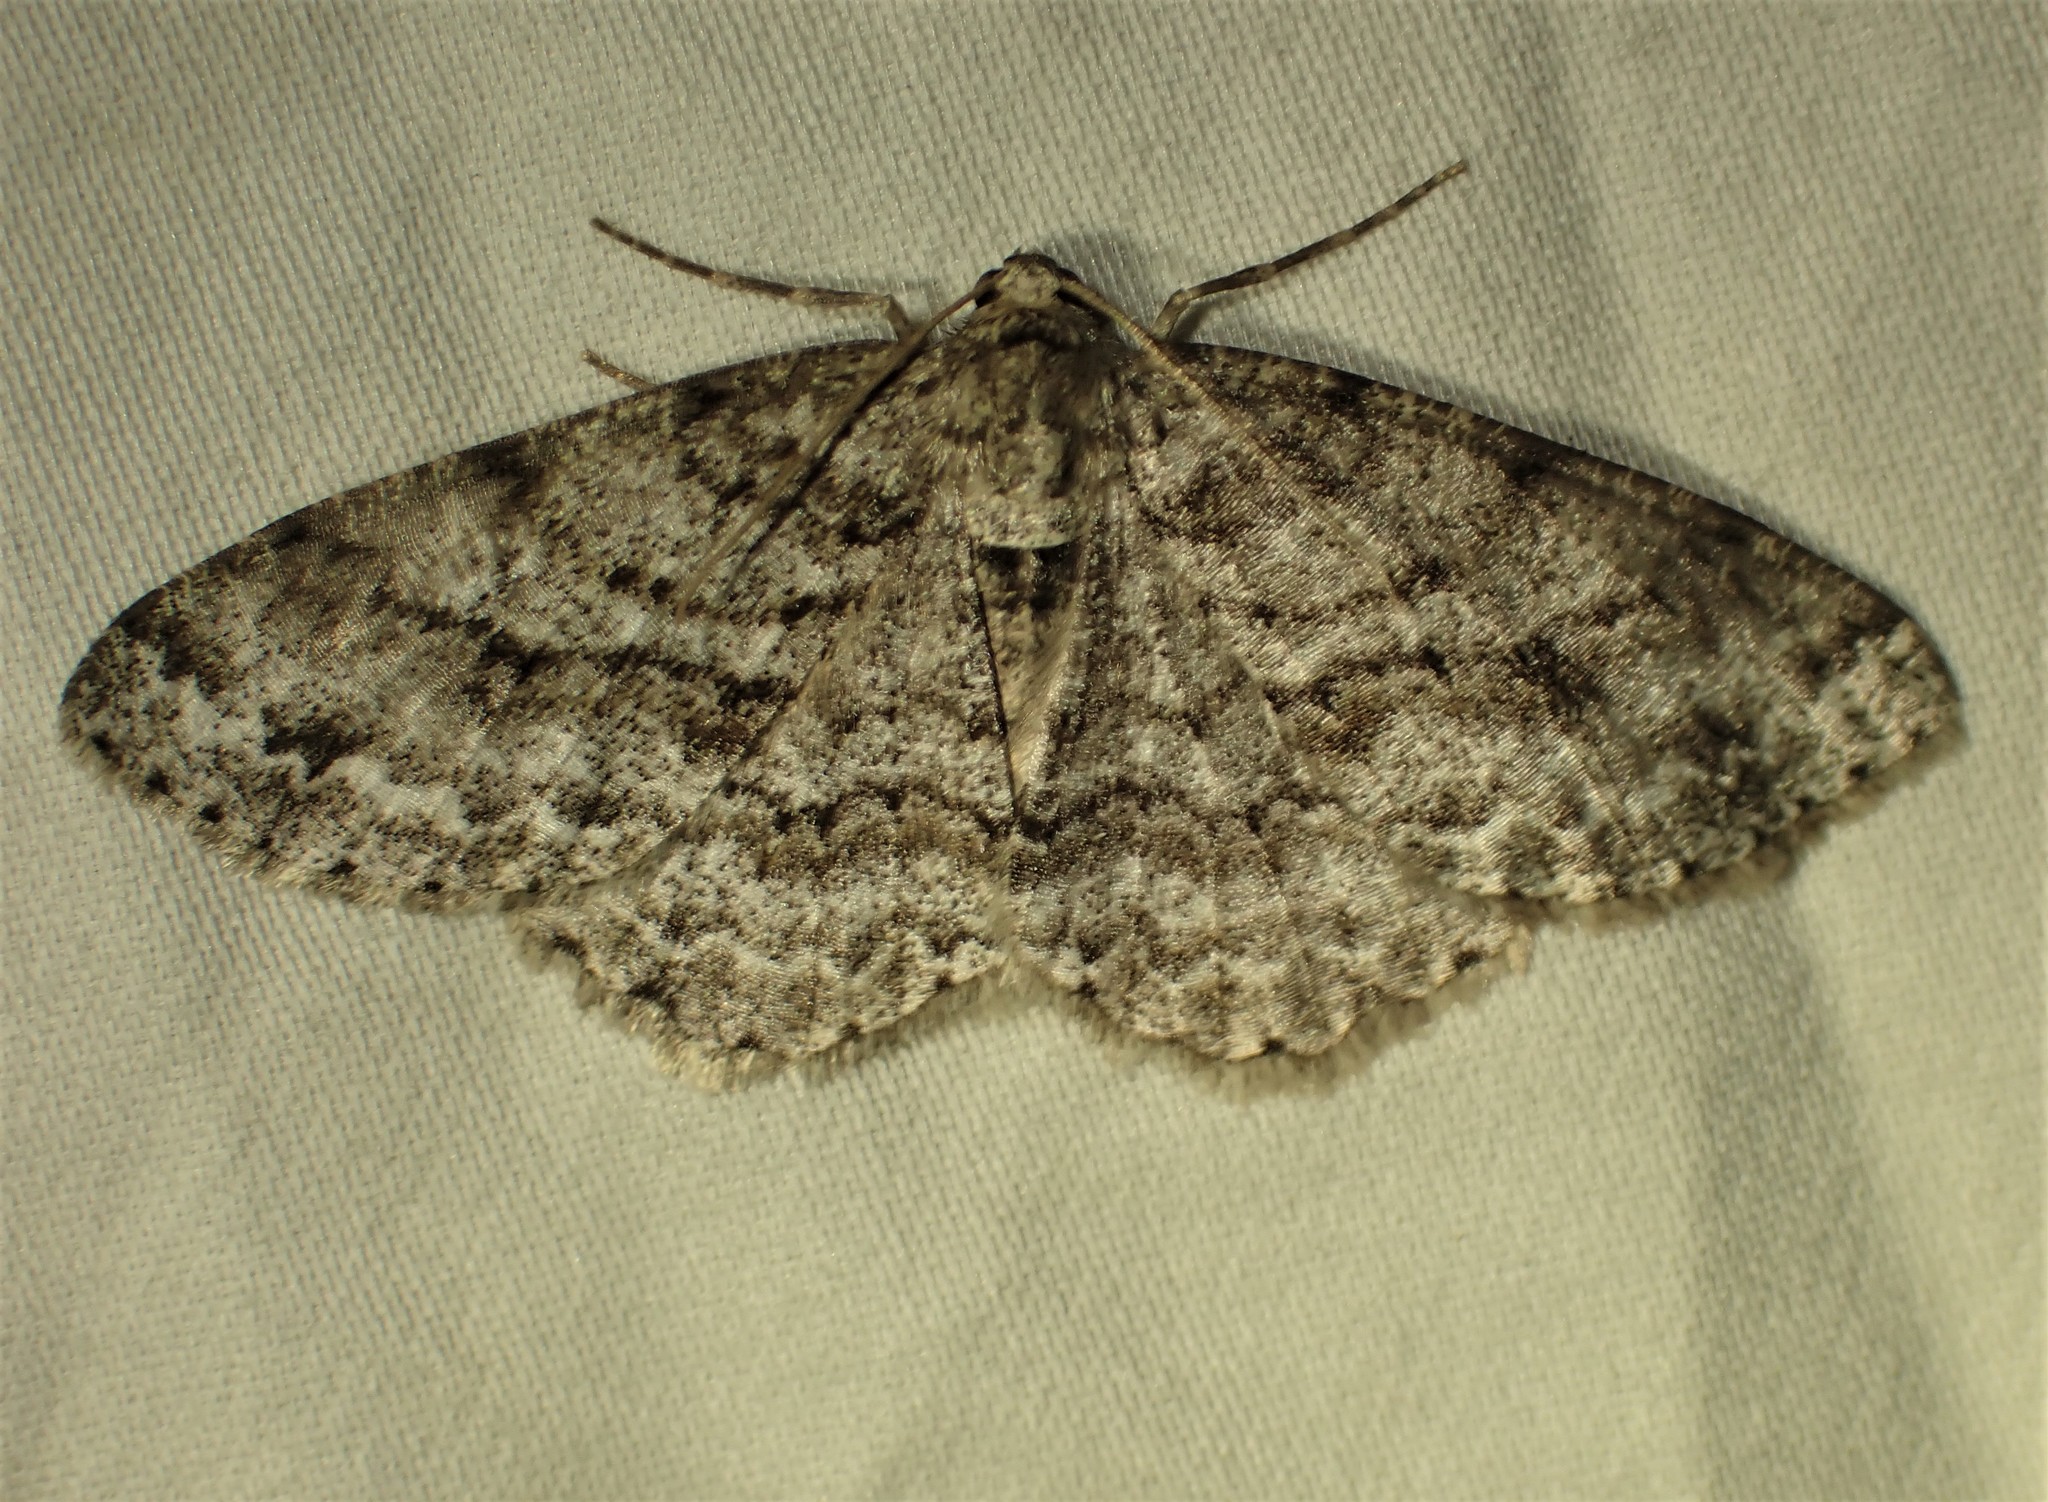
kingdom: Animalia
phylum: Arthropoda
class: Insecta
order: Lepidoptera
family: Geometridae
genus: Ectropis
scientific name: Ectropis crepuscularia
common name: Engrailed
